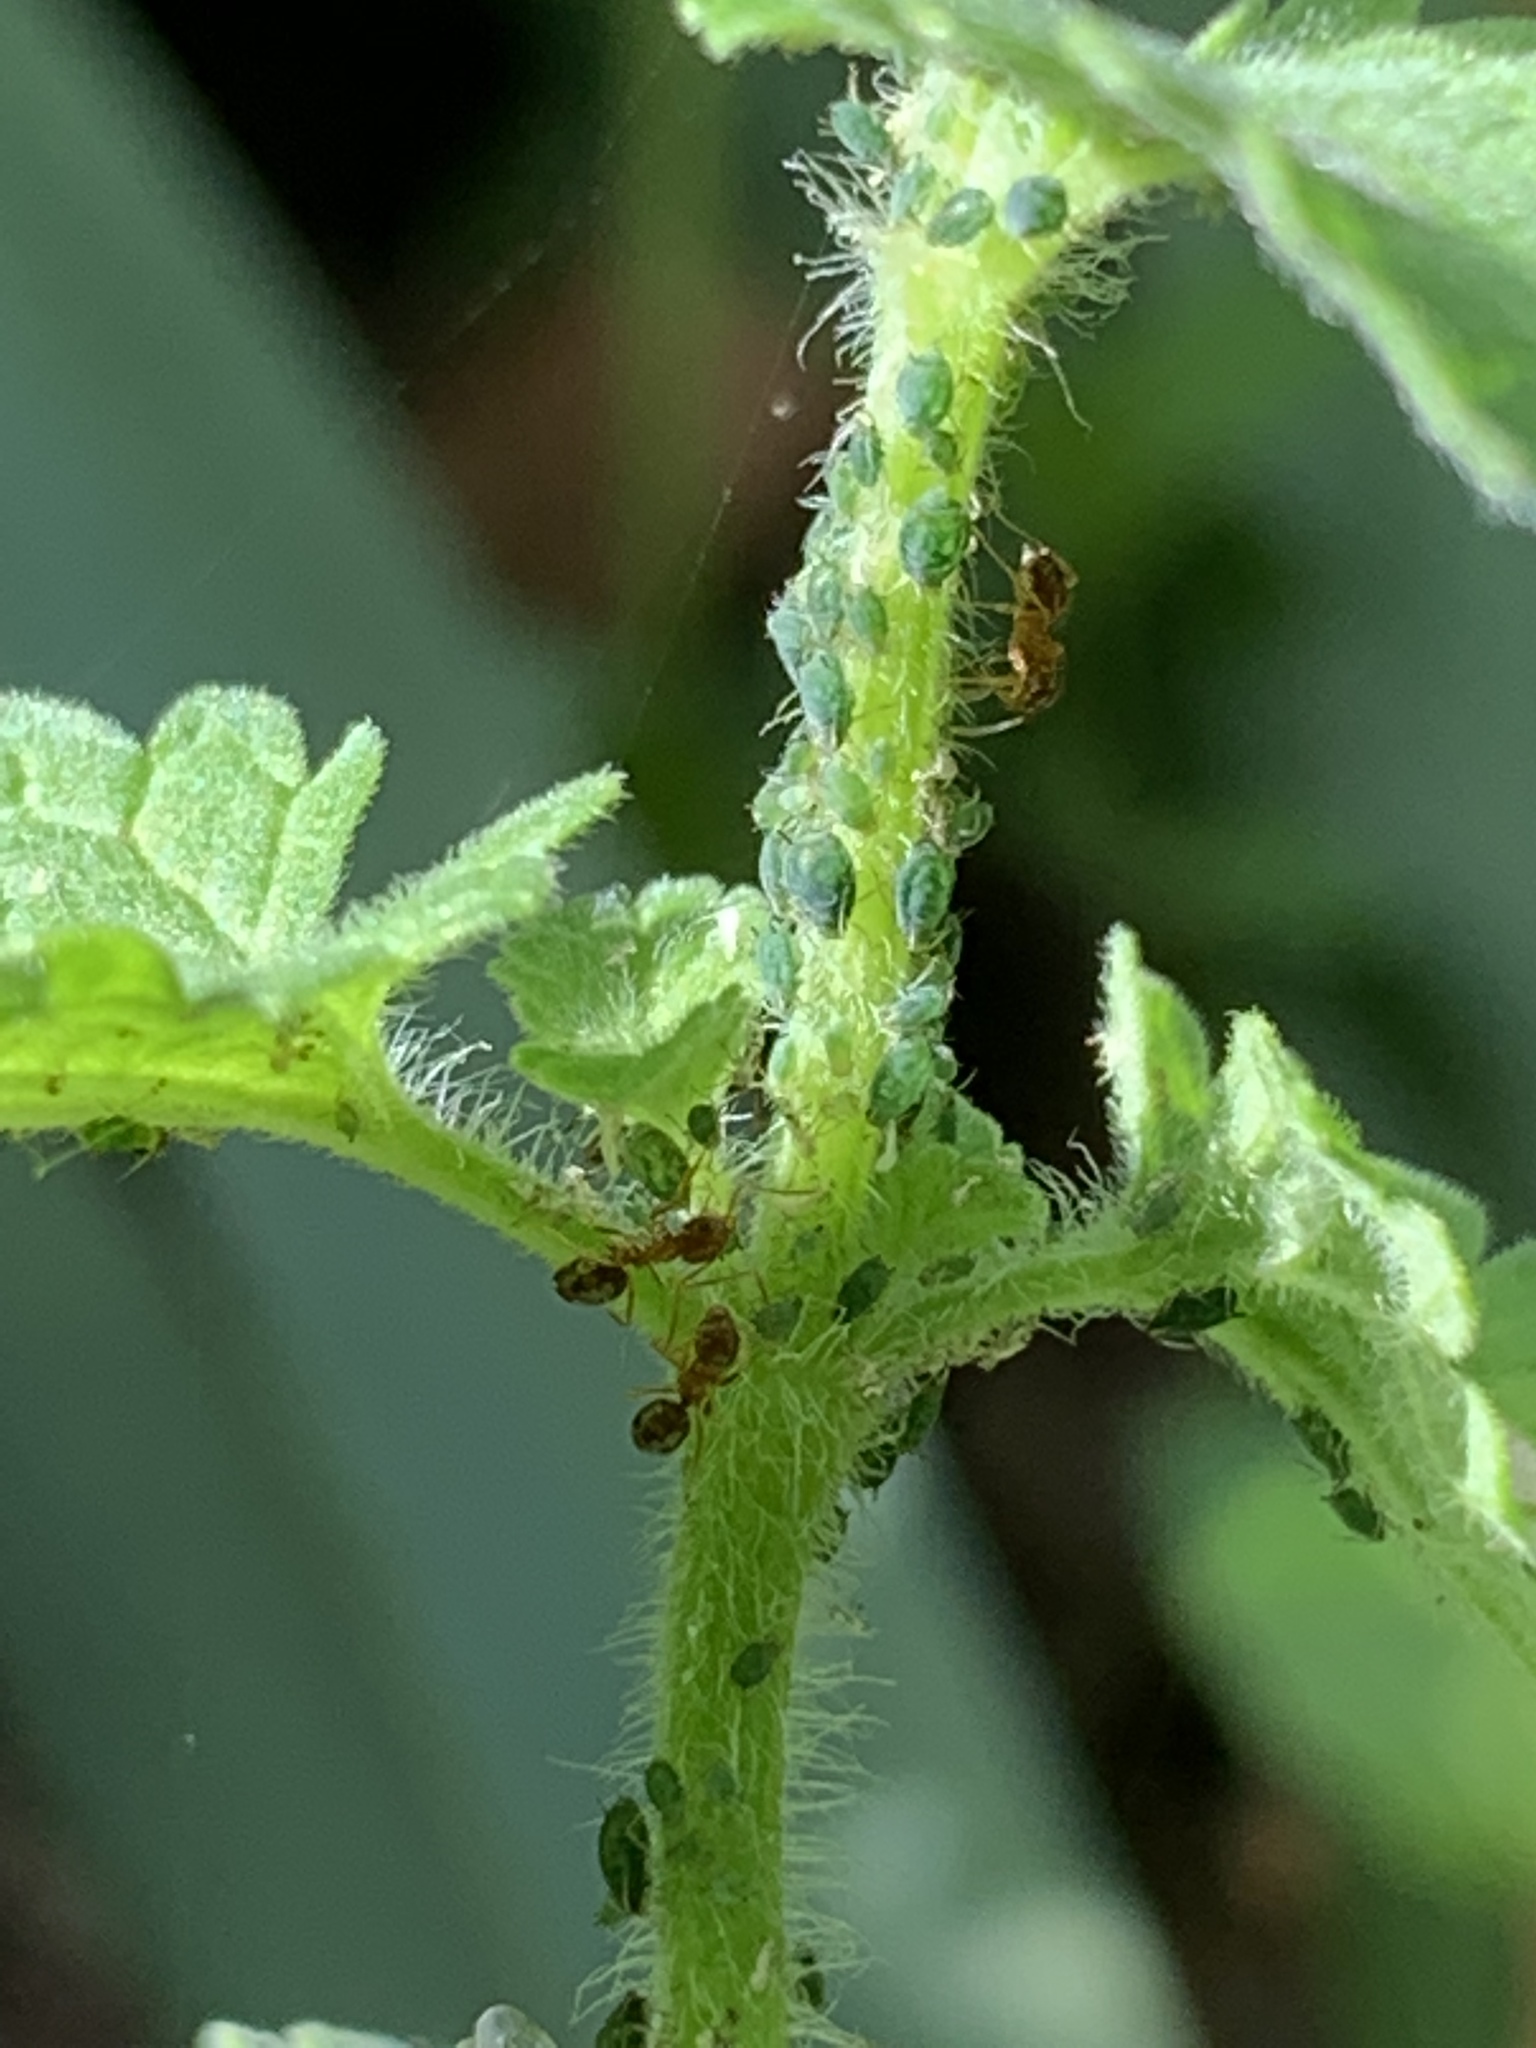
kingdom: Animalia
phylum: Arthropoda
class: Insecta
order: Hymenoptera
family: Formicidae
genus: Paratrechina
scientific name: Paratrechina flavipes
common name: Eastern asian formicine ant
